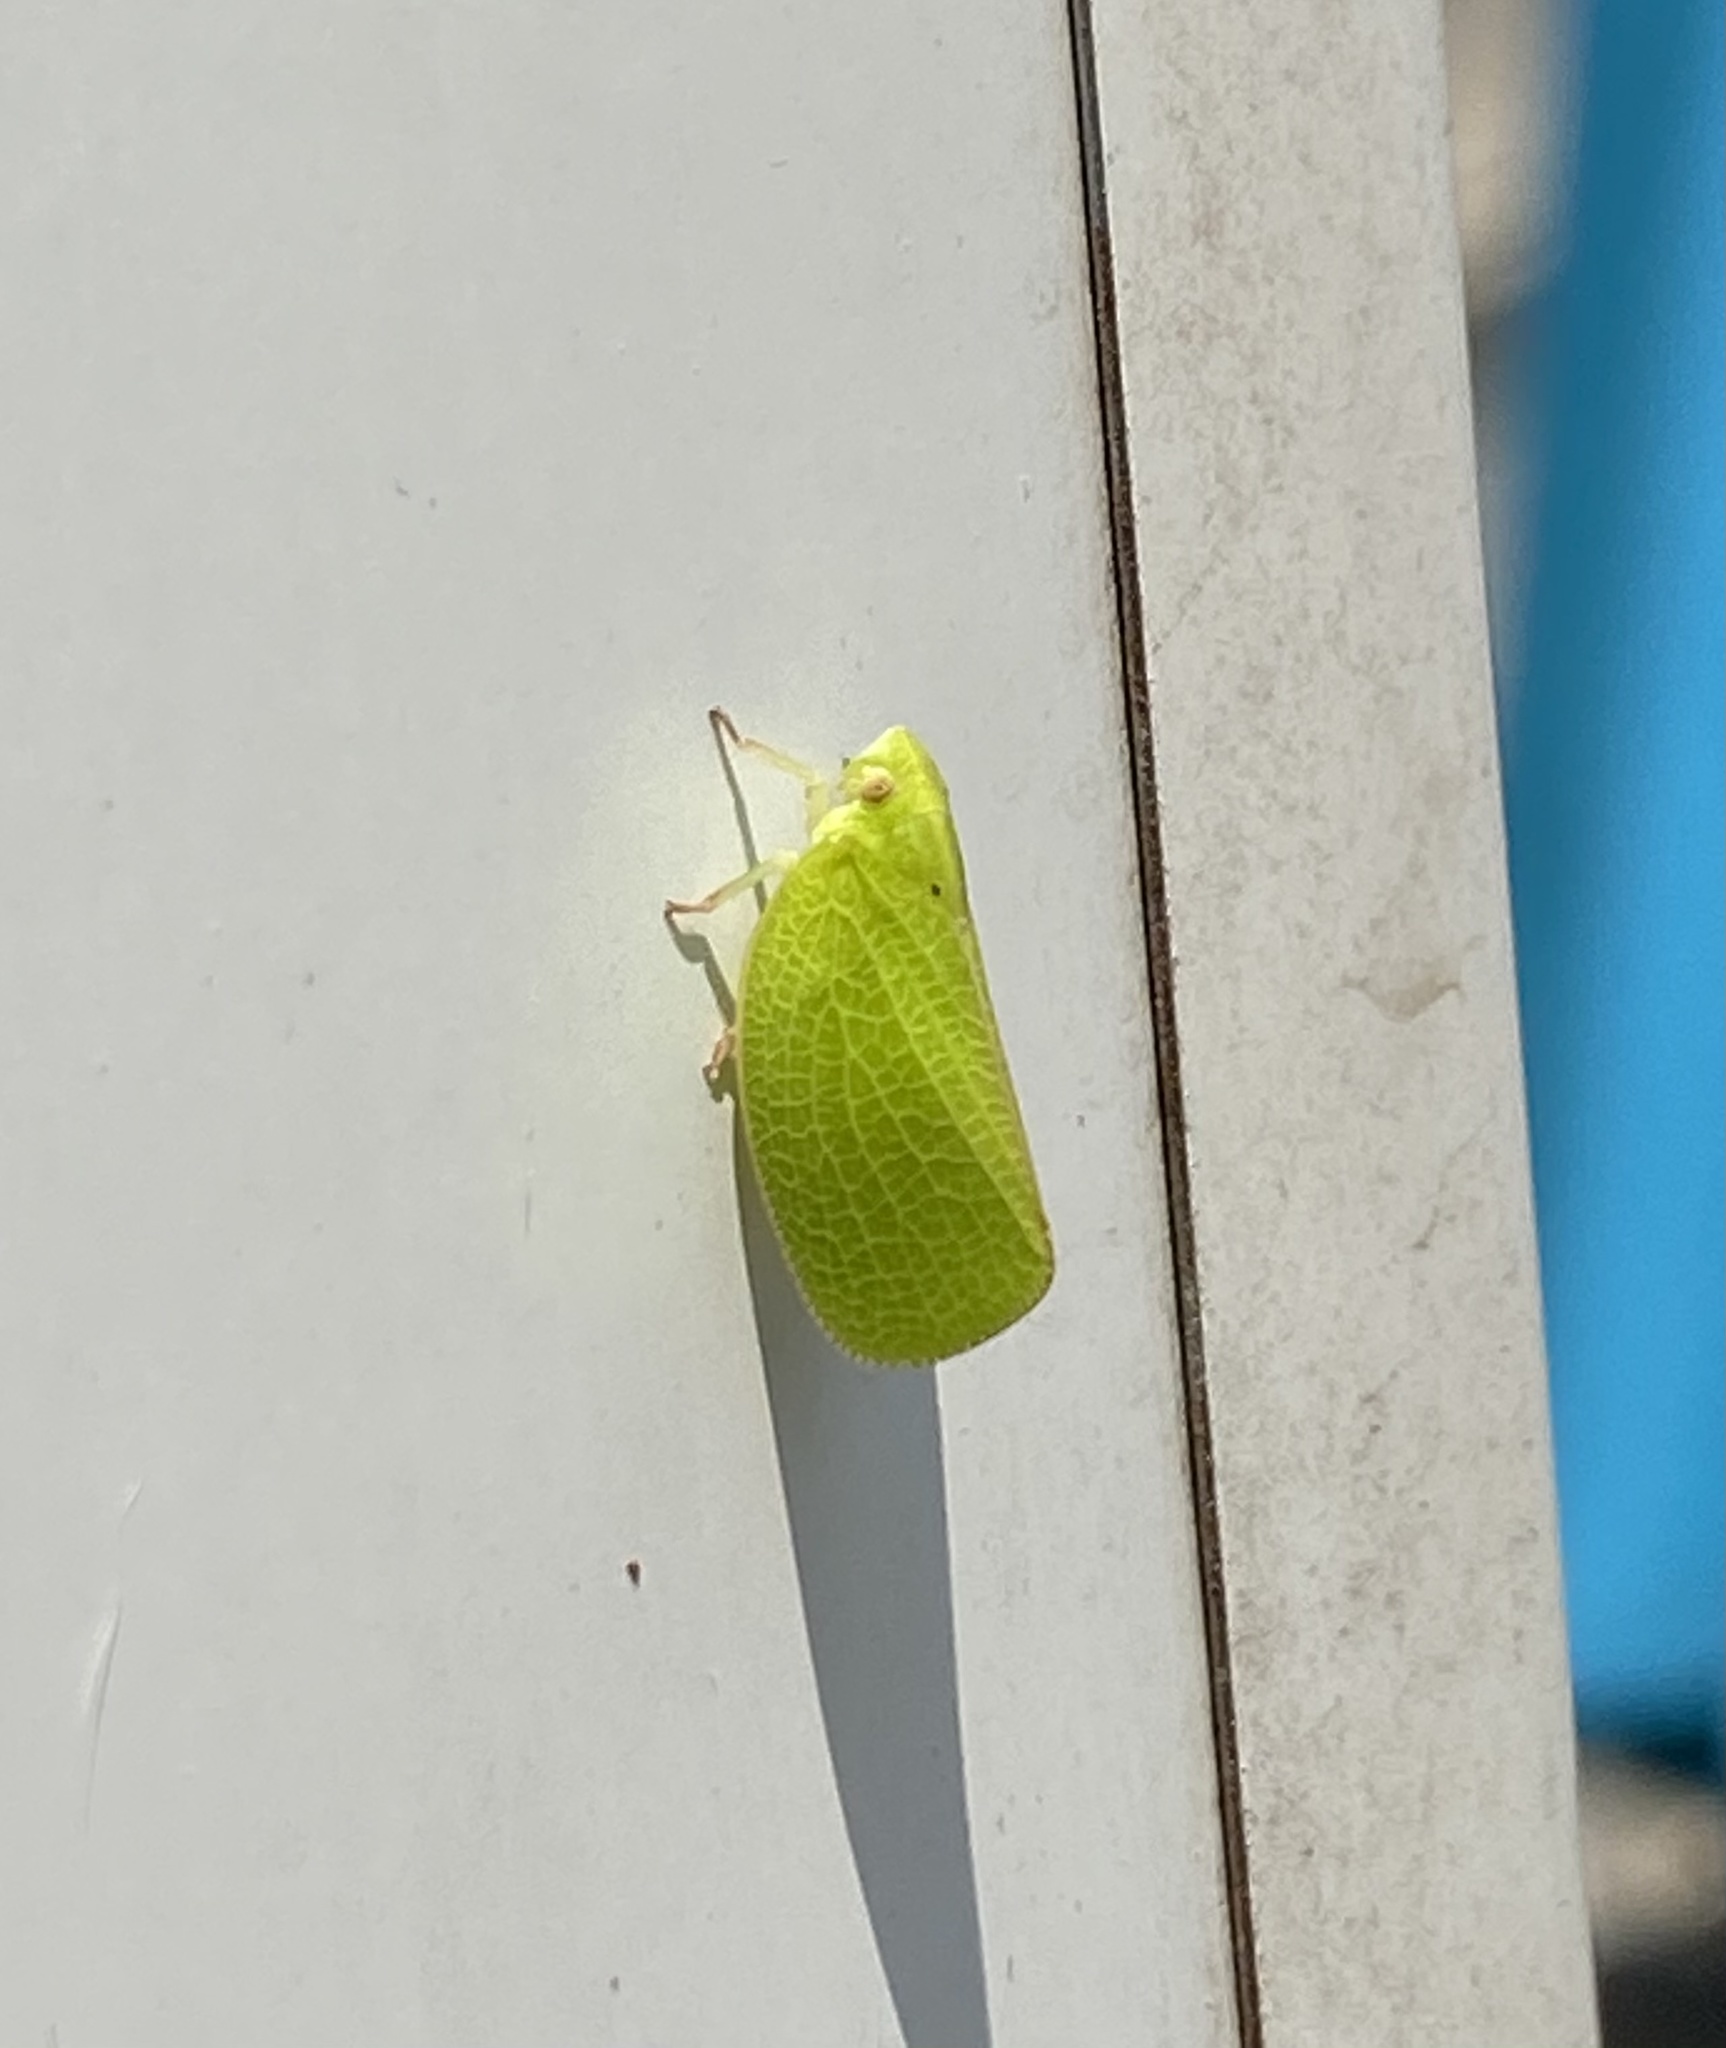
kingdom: Animalia
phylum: Arthropoda
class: Insecta
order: Hemiptera
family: Acanaloniidae
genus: Acanalonia
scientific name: Acanalonia conica
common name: Green cone-headed planthopper
